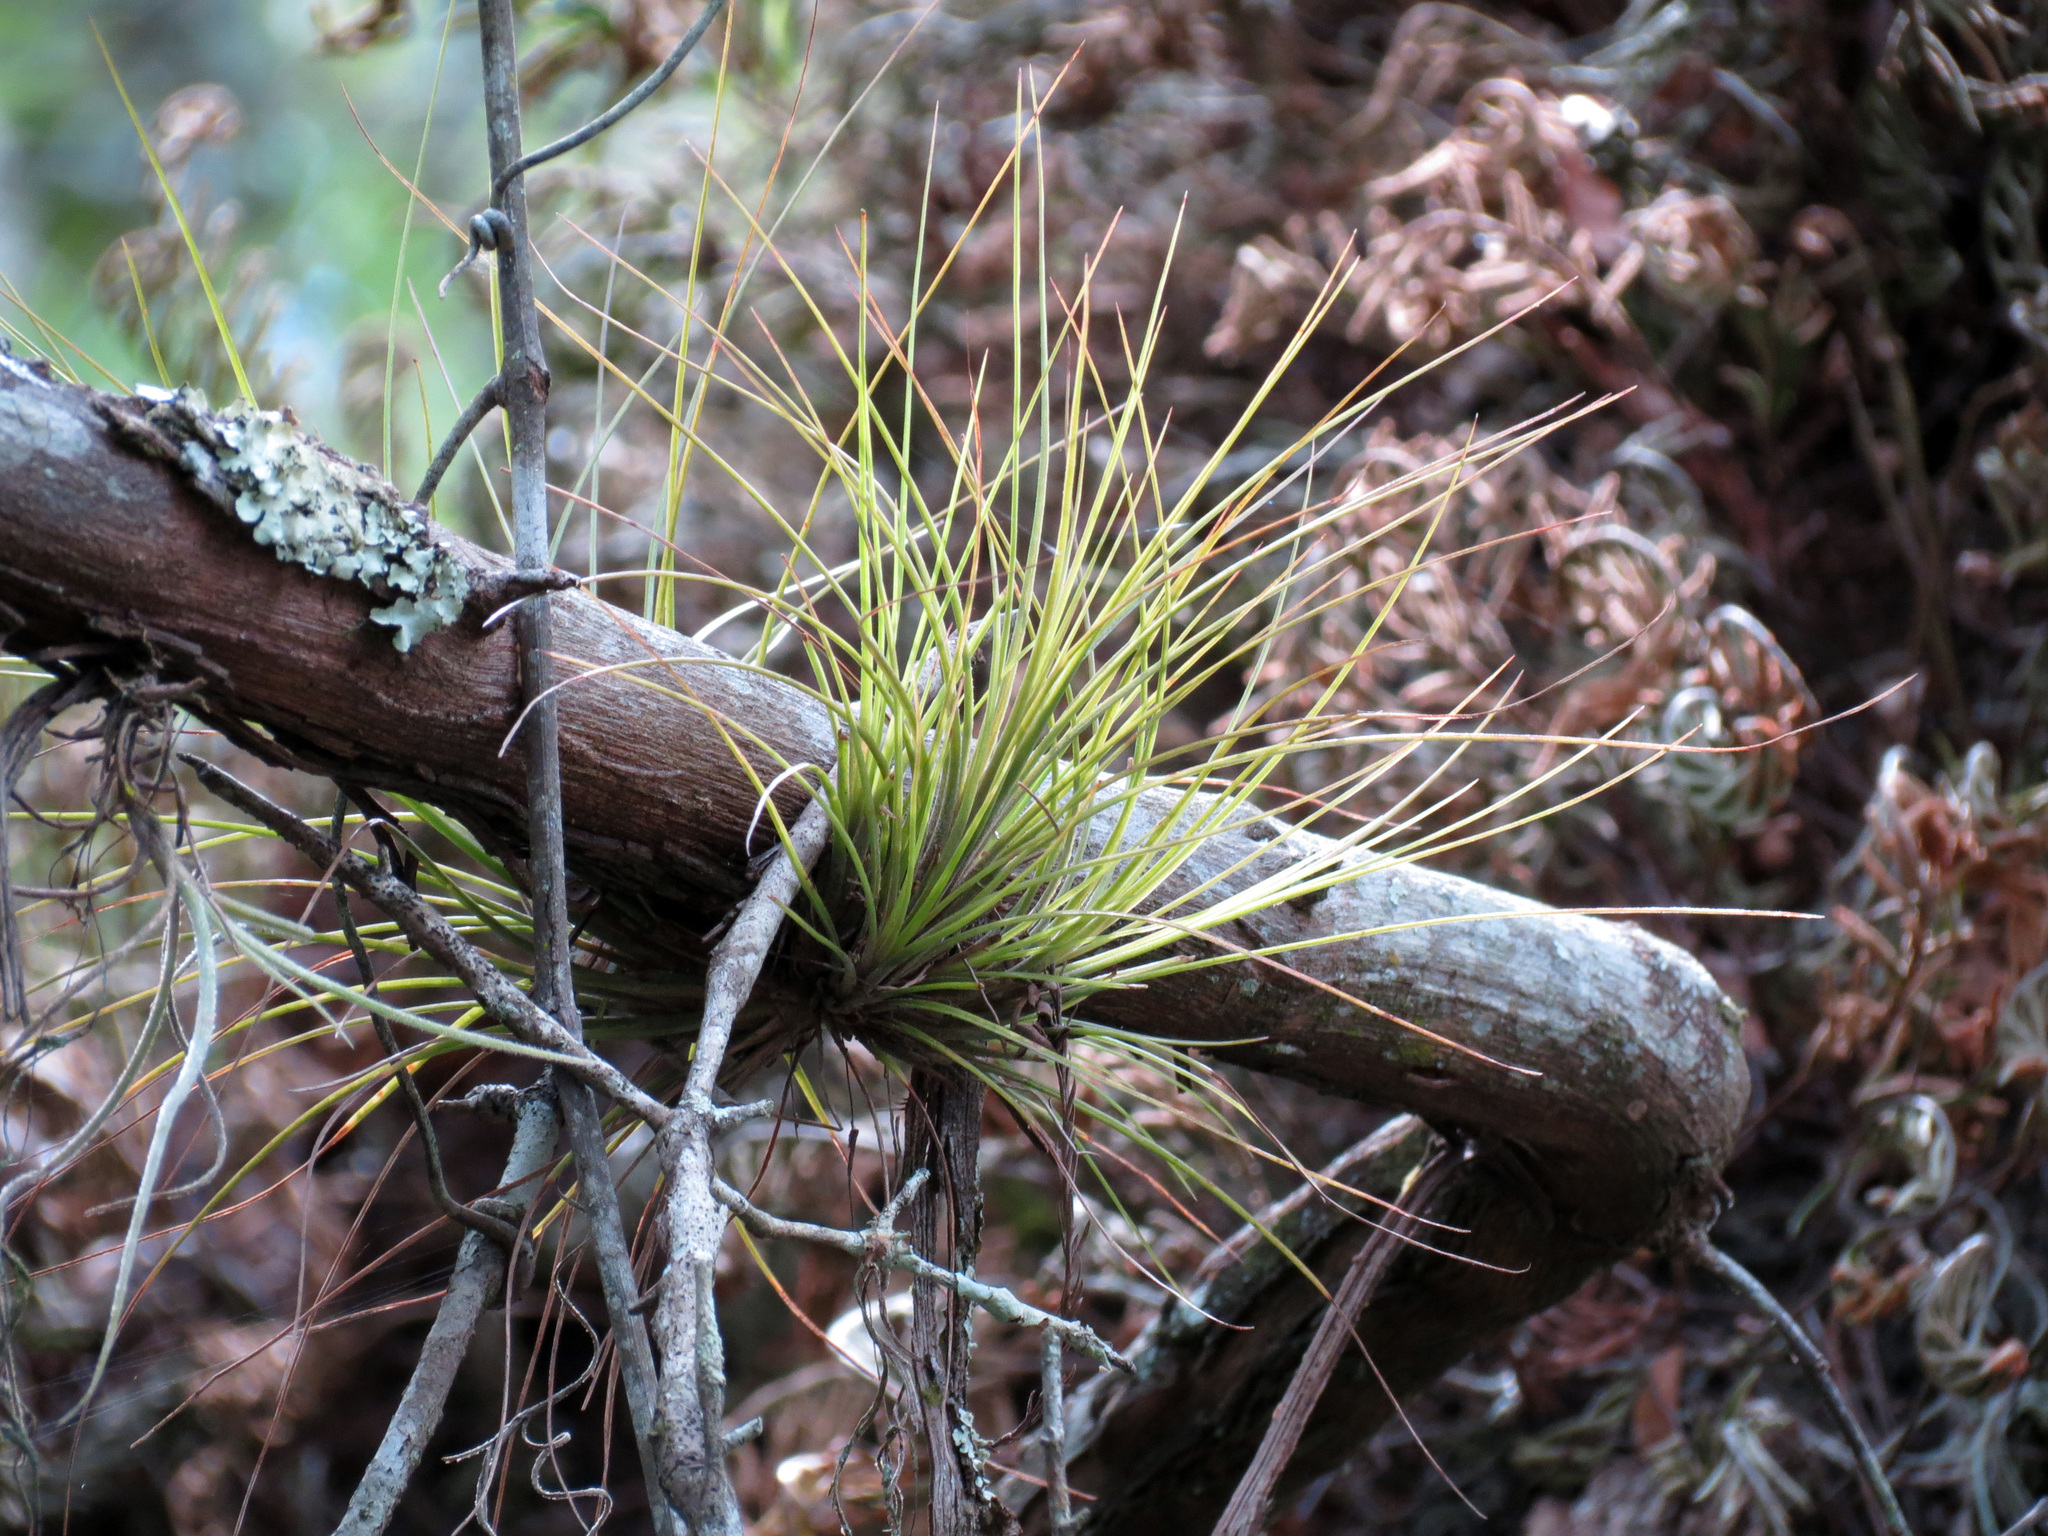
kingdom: Plantae
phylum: Tracheophyta
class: Liliopsida
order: Poales
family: Bromeliaceae
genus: Tillandsia
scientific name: Tillandsia bartramii
